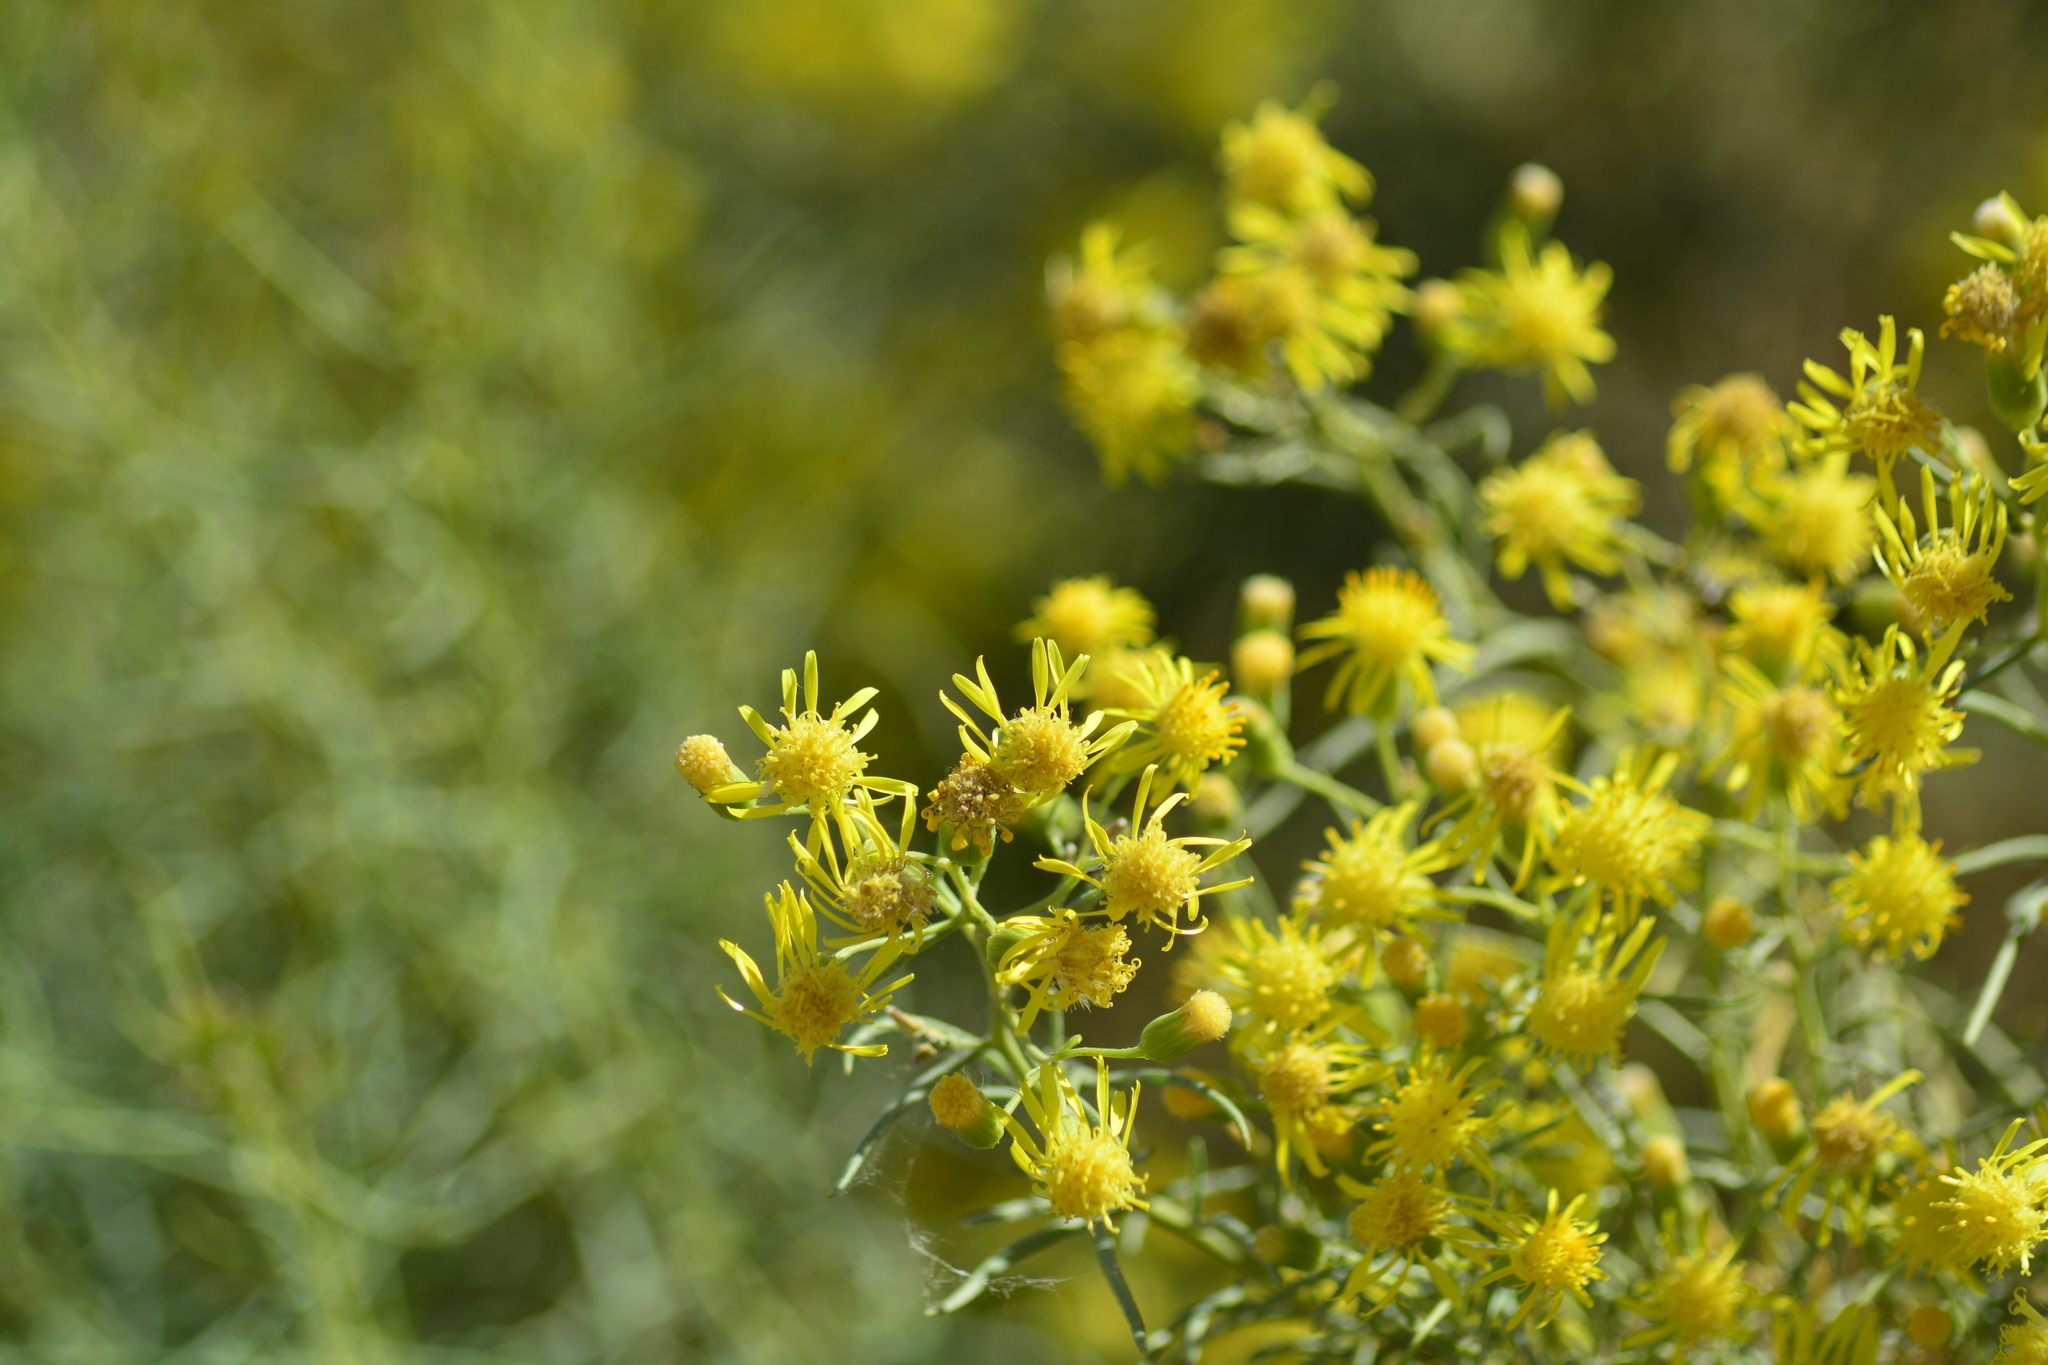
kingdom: Plantae
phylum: Tracheophyta
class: Magnoliopsida
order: Asterales
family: Asteraceae
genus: Senecio
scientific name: Senecio subulatus
